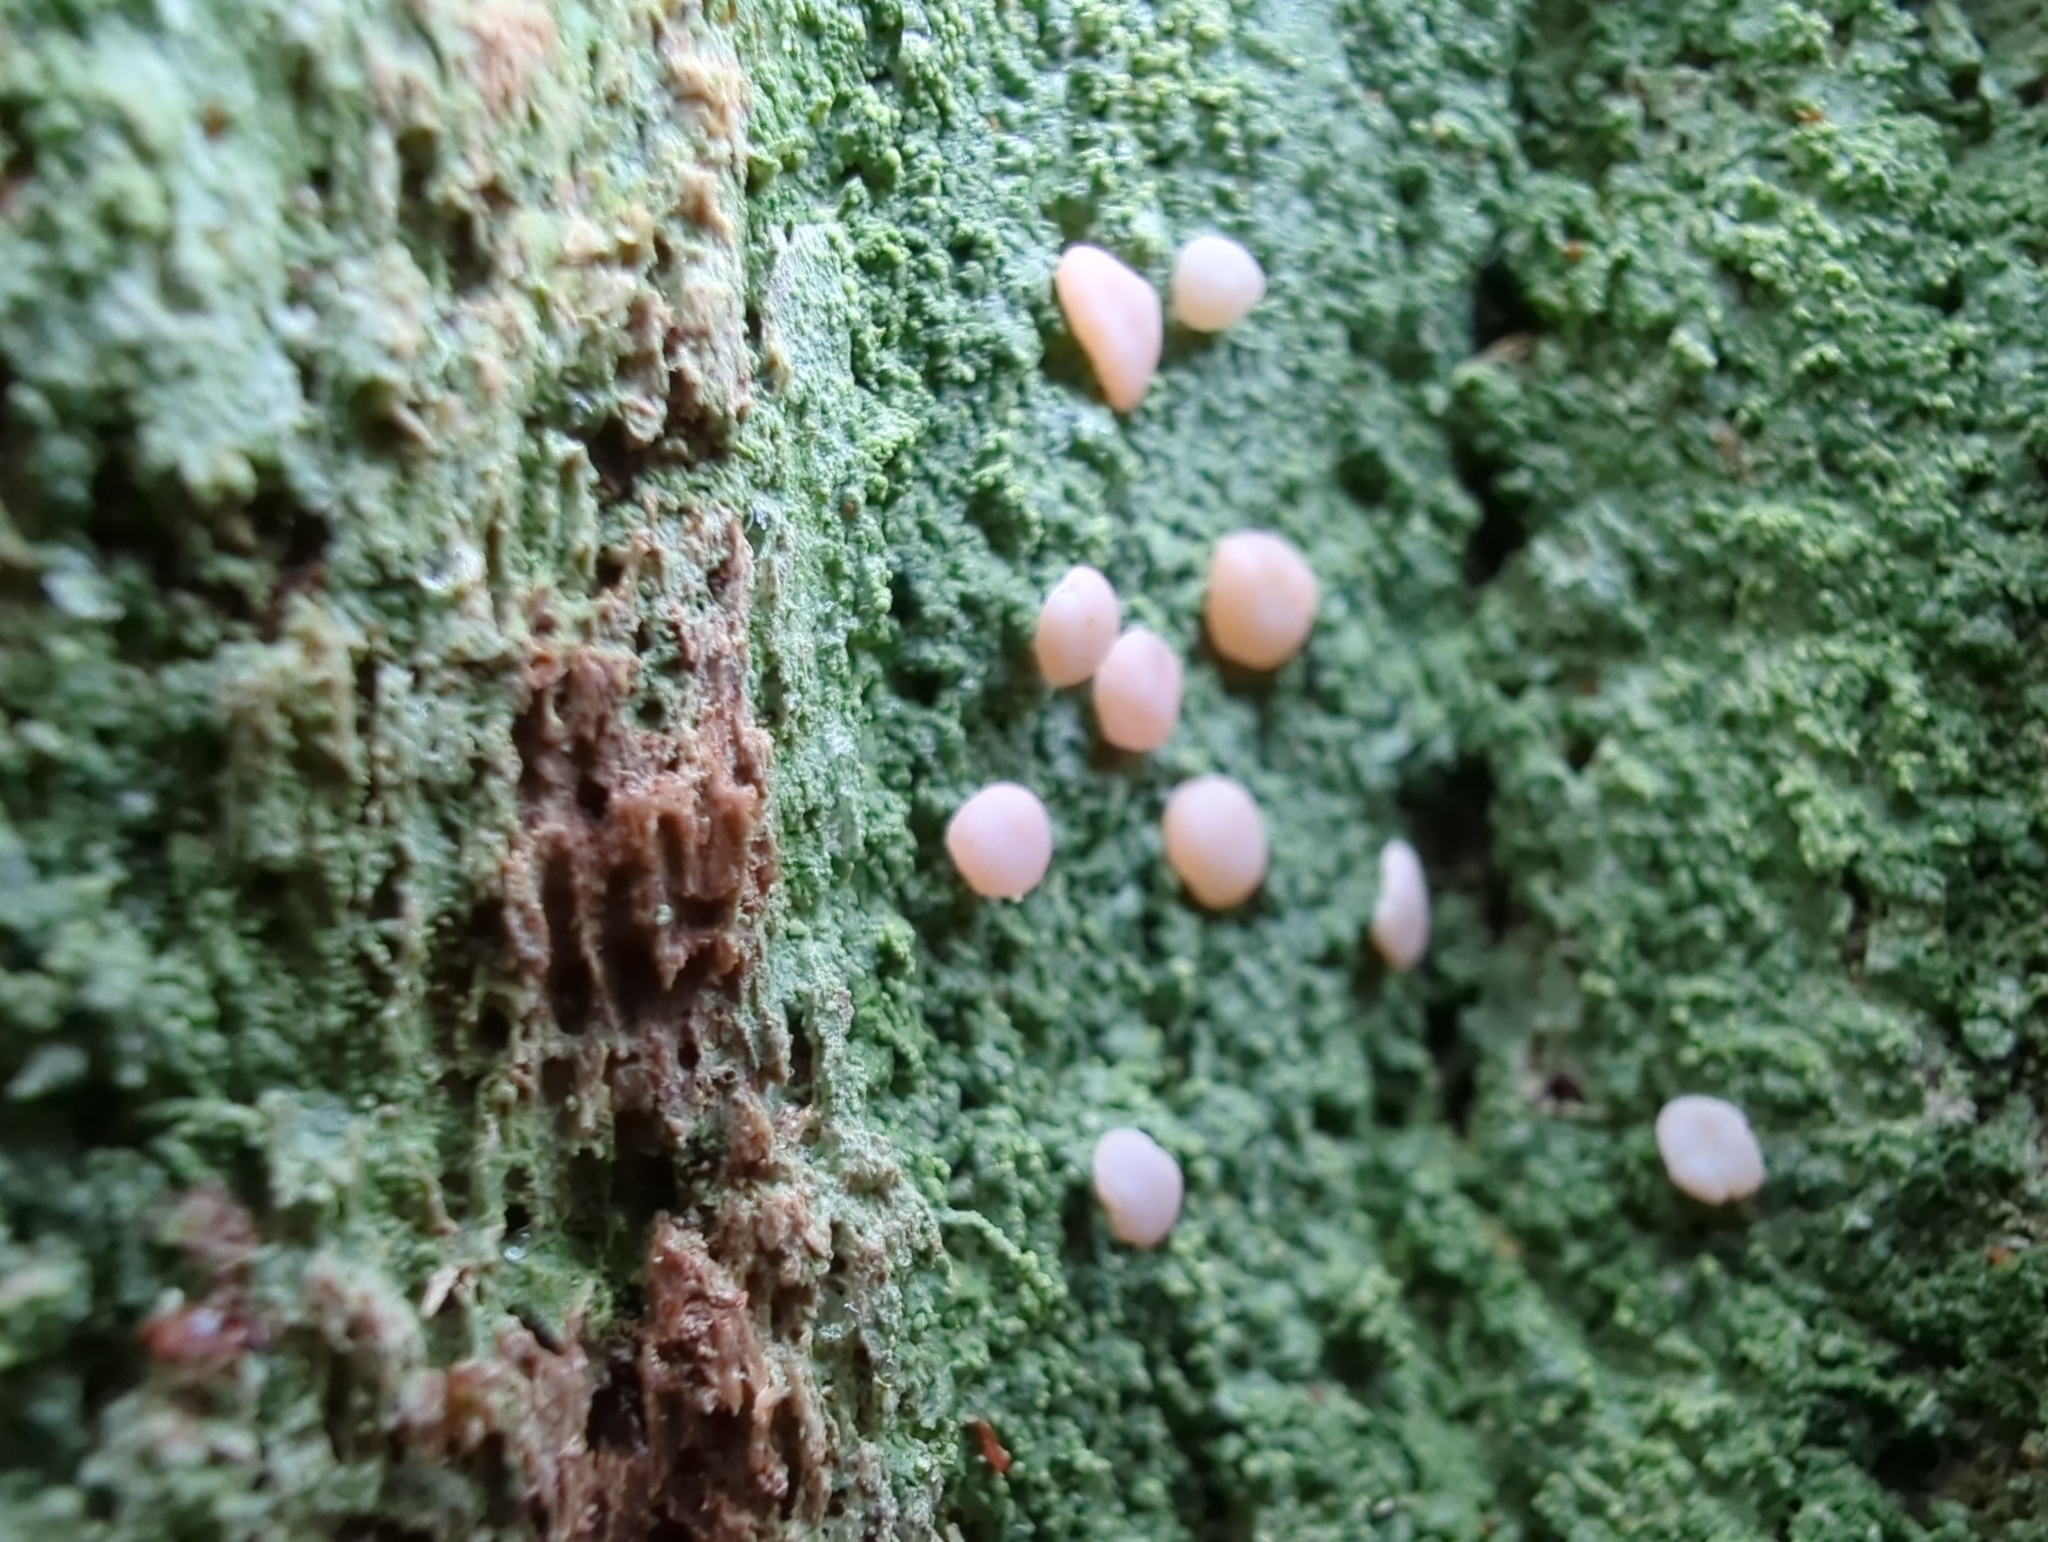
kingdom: Fungi
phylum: Ascomycota
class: Lecanoromycetes
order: Pertusariales
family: Icmadophilaceae
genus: Icmadophila
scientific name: Icmadophila ericetorum
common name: Candy lichen
